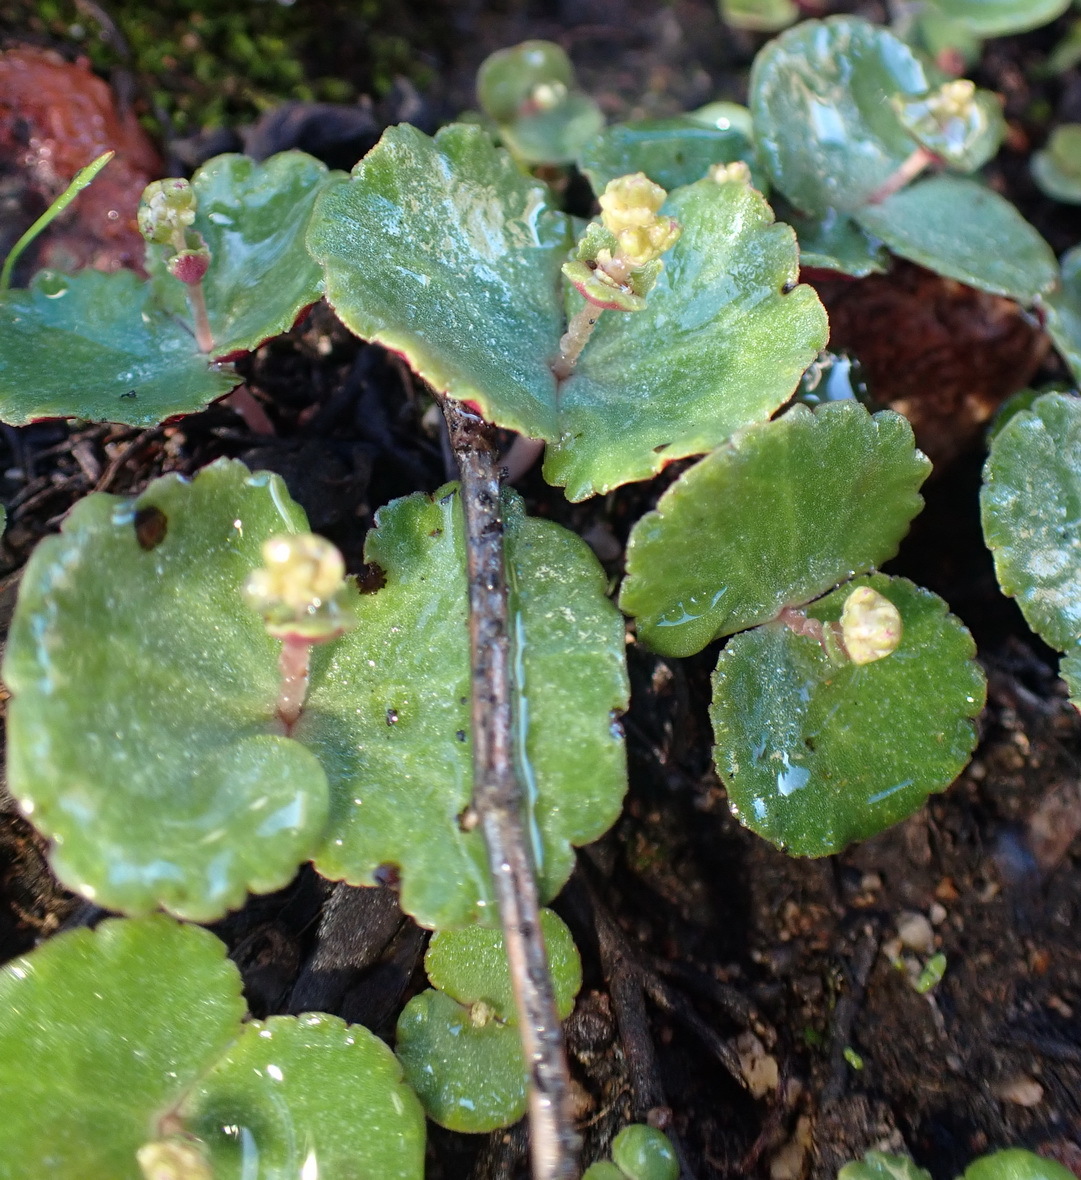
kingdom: Plantae
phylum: Tracheophyta
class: Magnoliopsida
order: Saxifragales
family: Crassulaceae
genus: Crassula
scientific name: Crassula umbella
